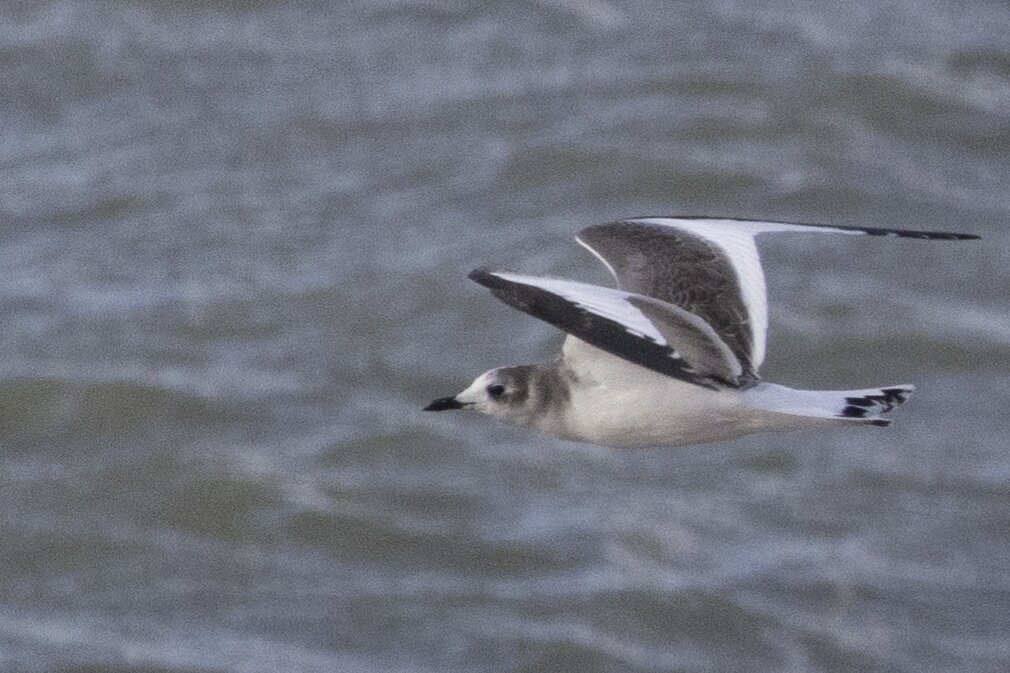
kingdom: Animalia
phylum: Chordata
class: Aves
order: Charadriiformes
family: Laridae
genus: Xema
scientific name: Xema sabini
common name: Sabine's gull
